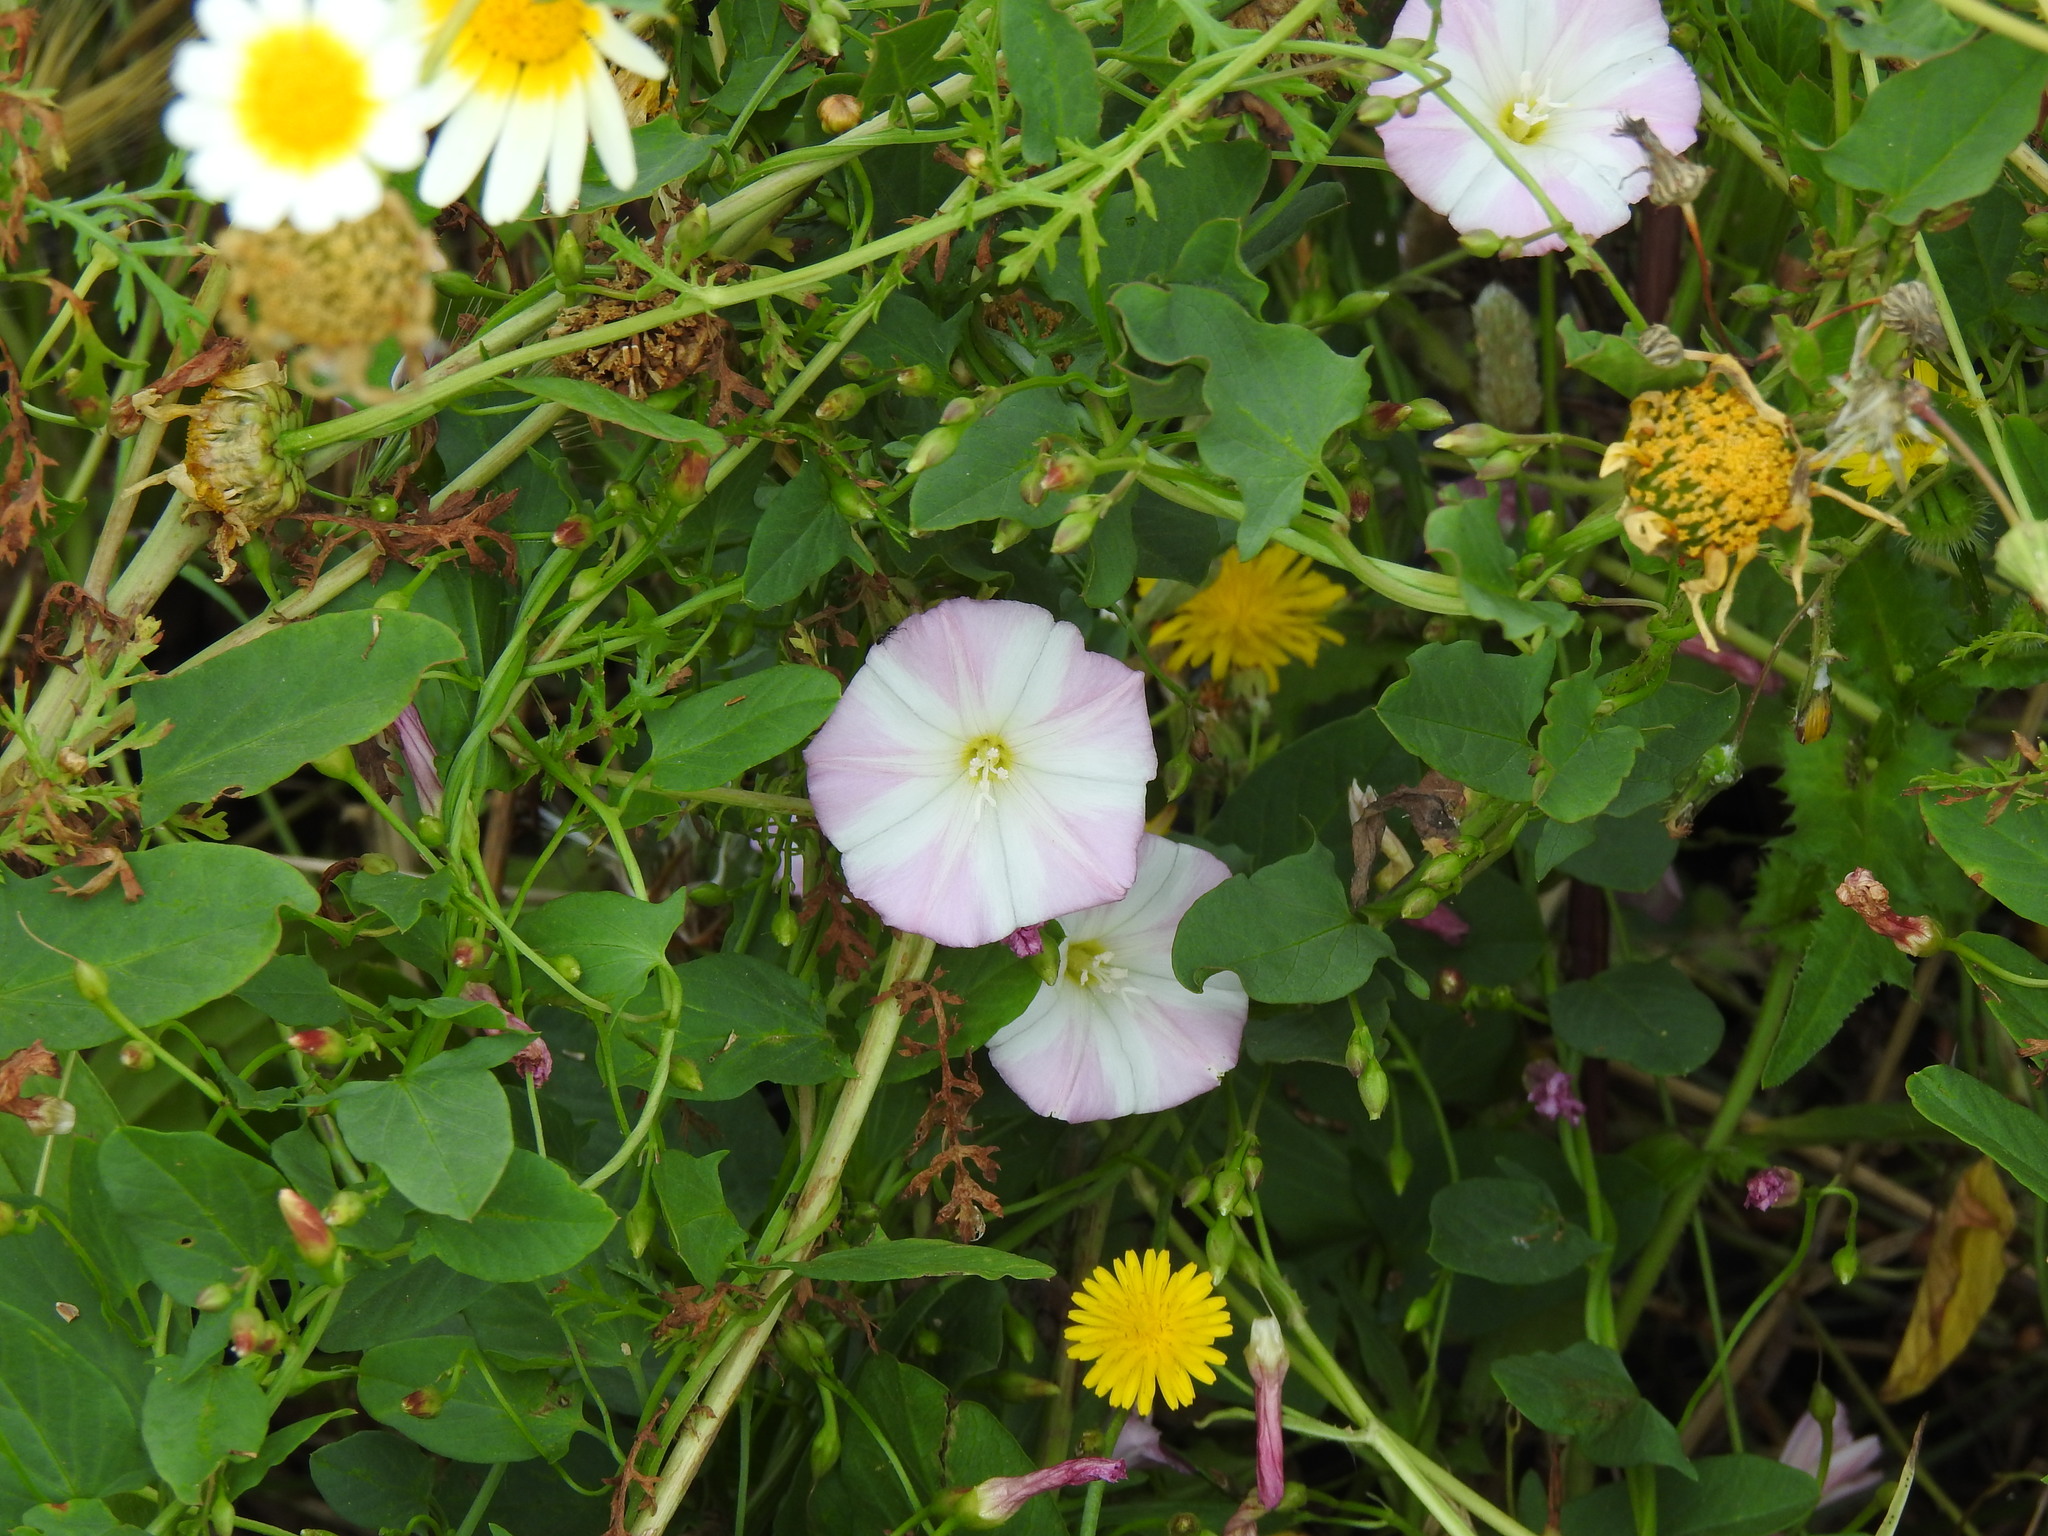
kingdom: Plantae
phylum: Tracheophyta
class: Magnoliopsida
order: Solanales
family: Convolvulaceae
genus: Convolvulus
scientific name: Convolvulus arvensis
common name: Field bindweed
